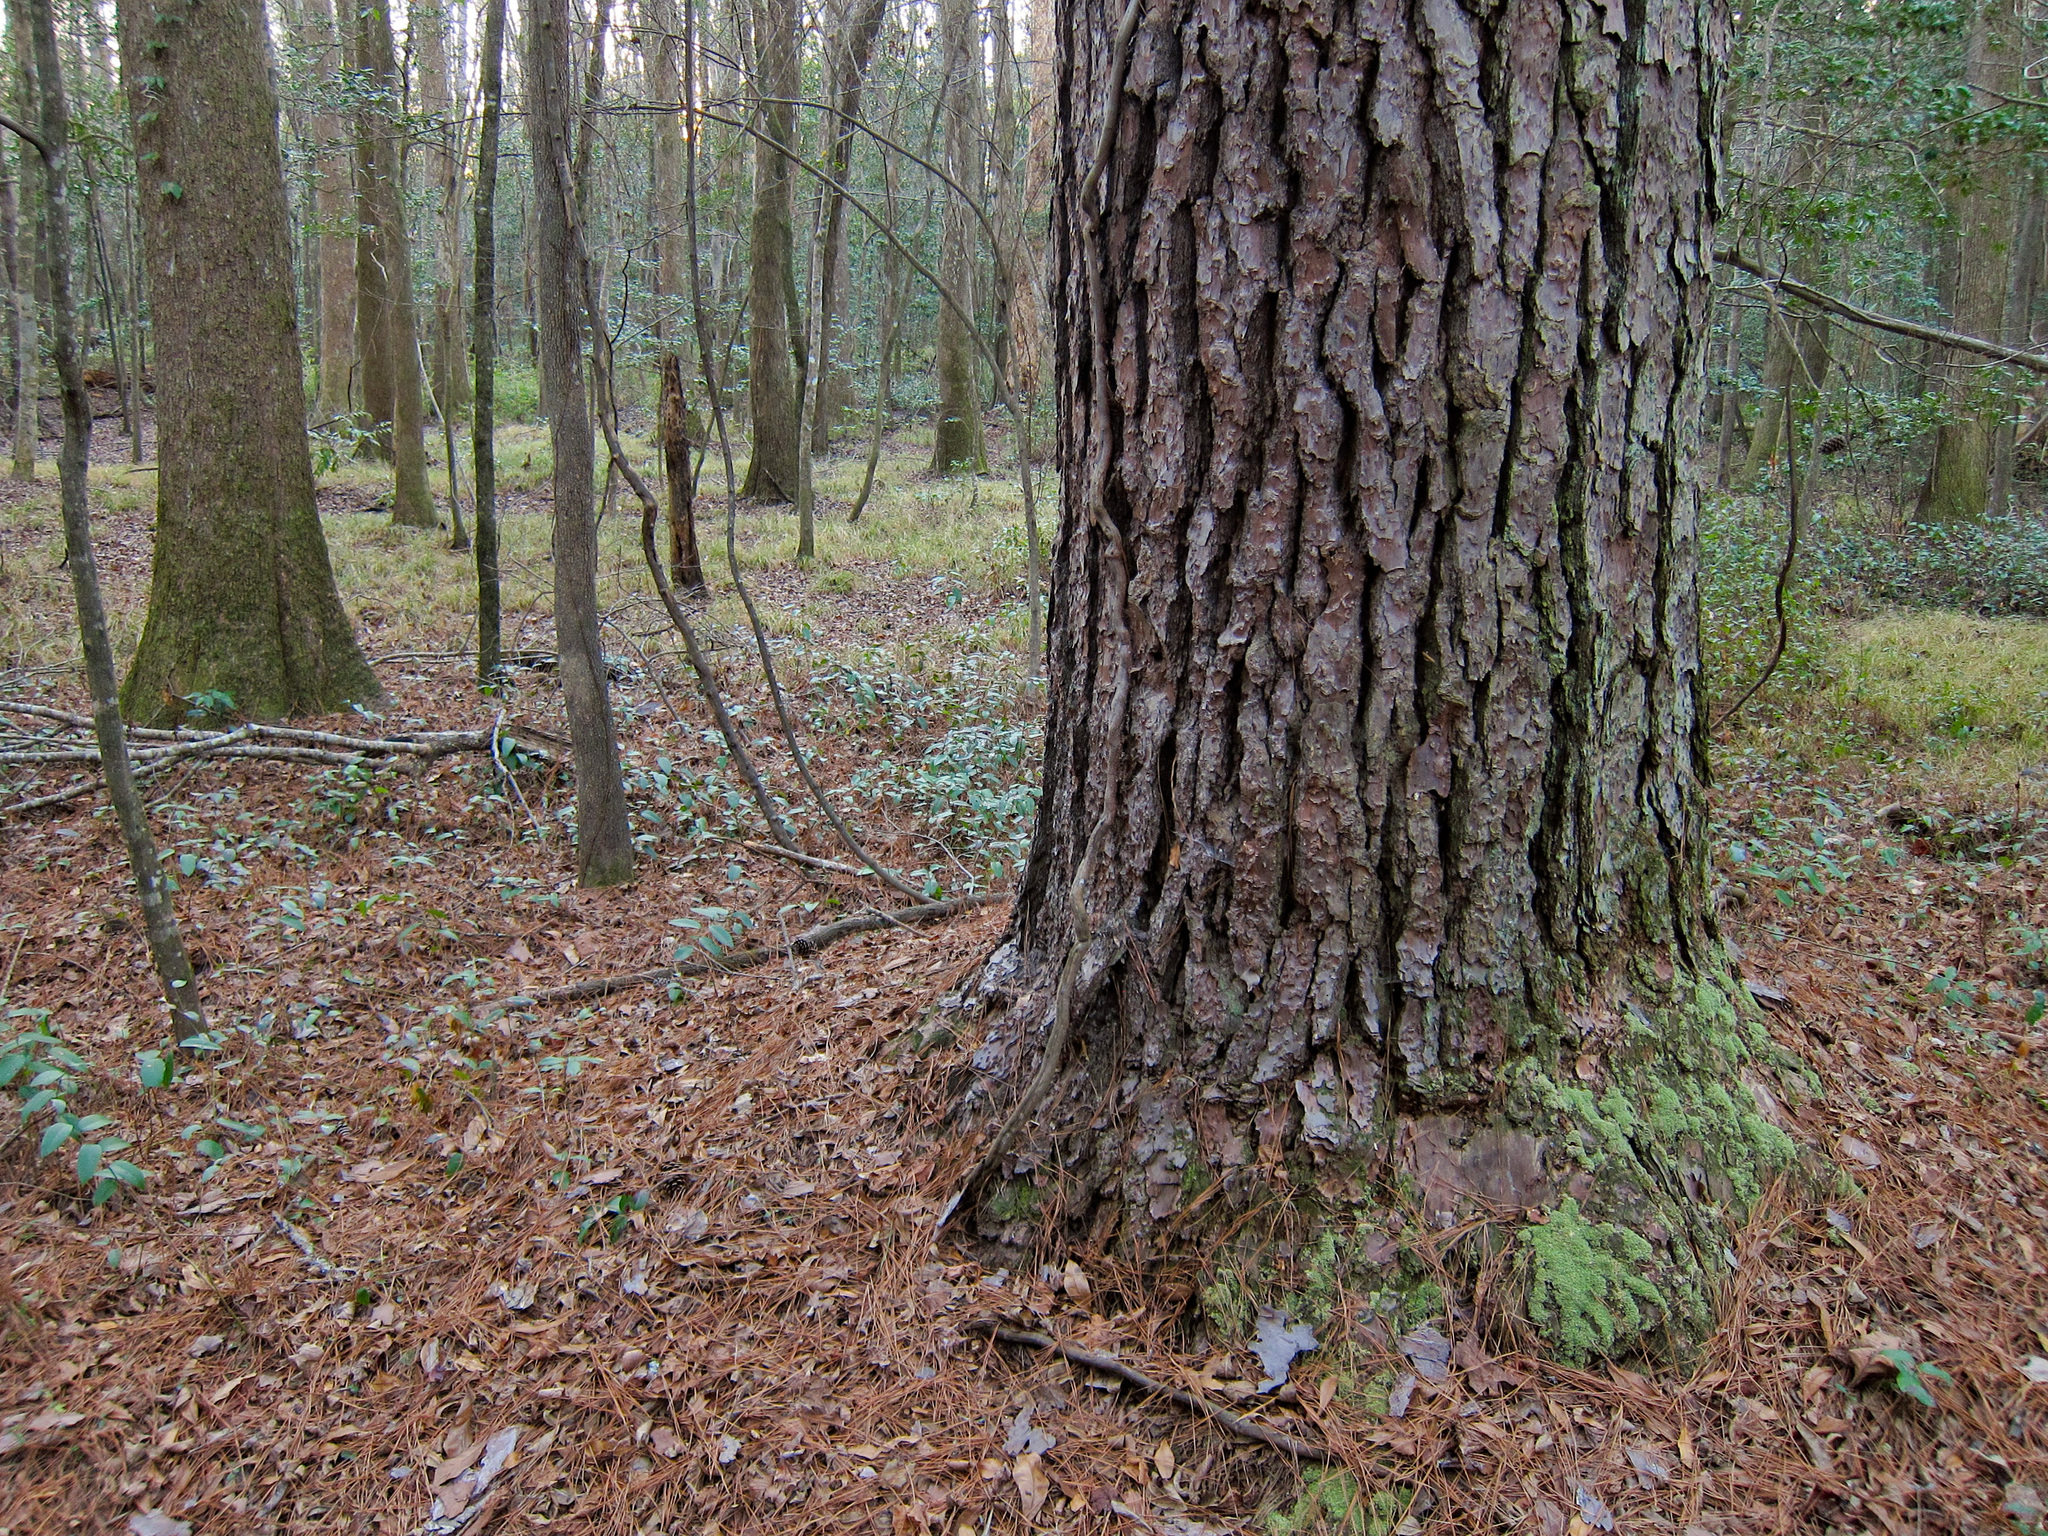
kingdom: Plantae
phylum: Tracheophyta
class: Pinopsida
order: Pinales
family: Pinaceae
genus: Pinus
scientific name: Pinus taeda
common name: Loblolly pine
